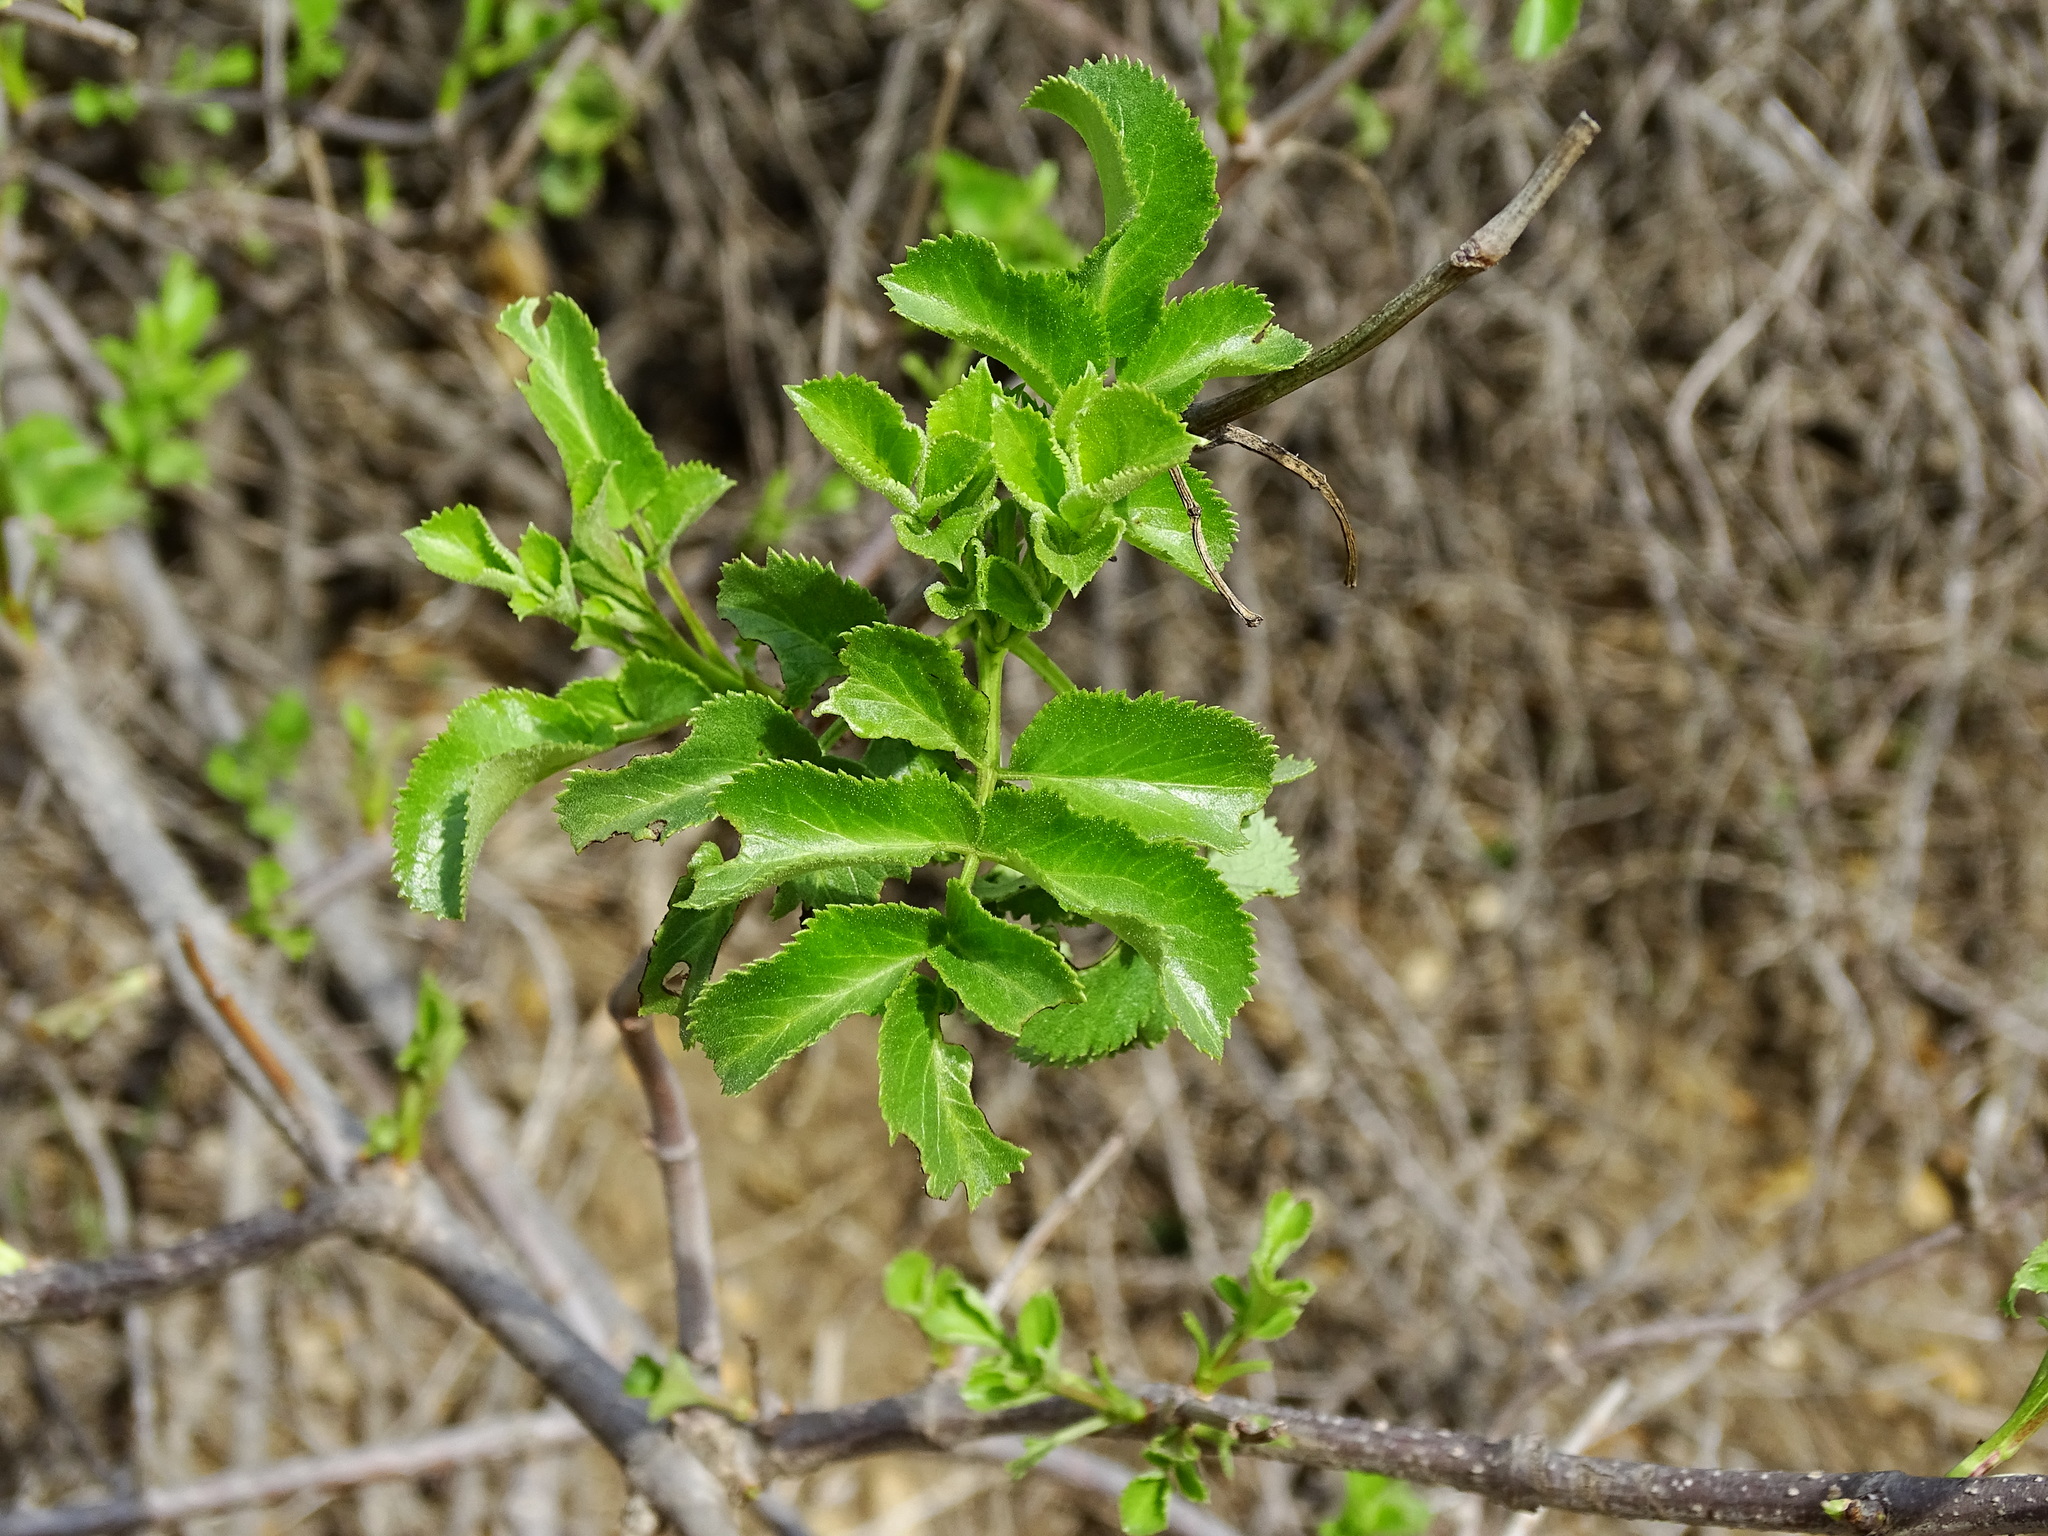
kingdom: Plantae
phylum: Tracheophyta
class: Magnoliopsida
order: Dipsacales
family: Viburnaceae
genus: Sambucus
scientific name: Sambucus cerulea
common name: Blue elder
